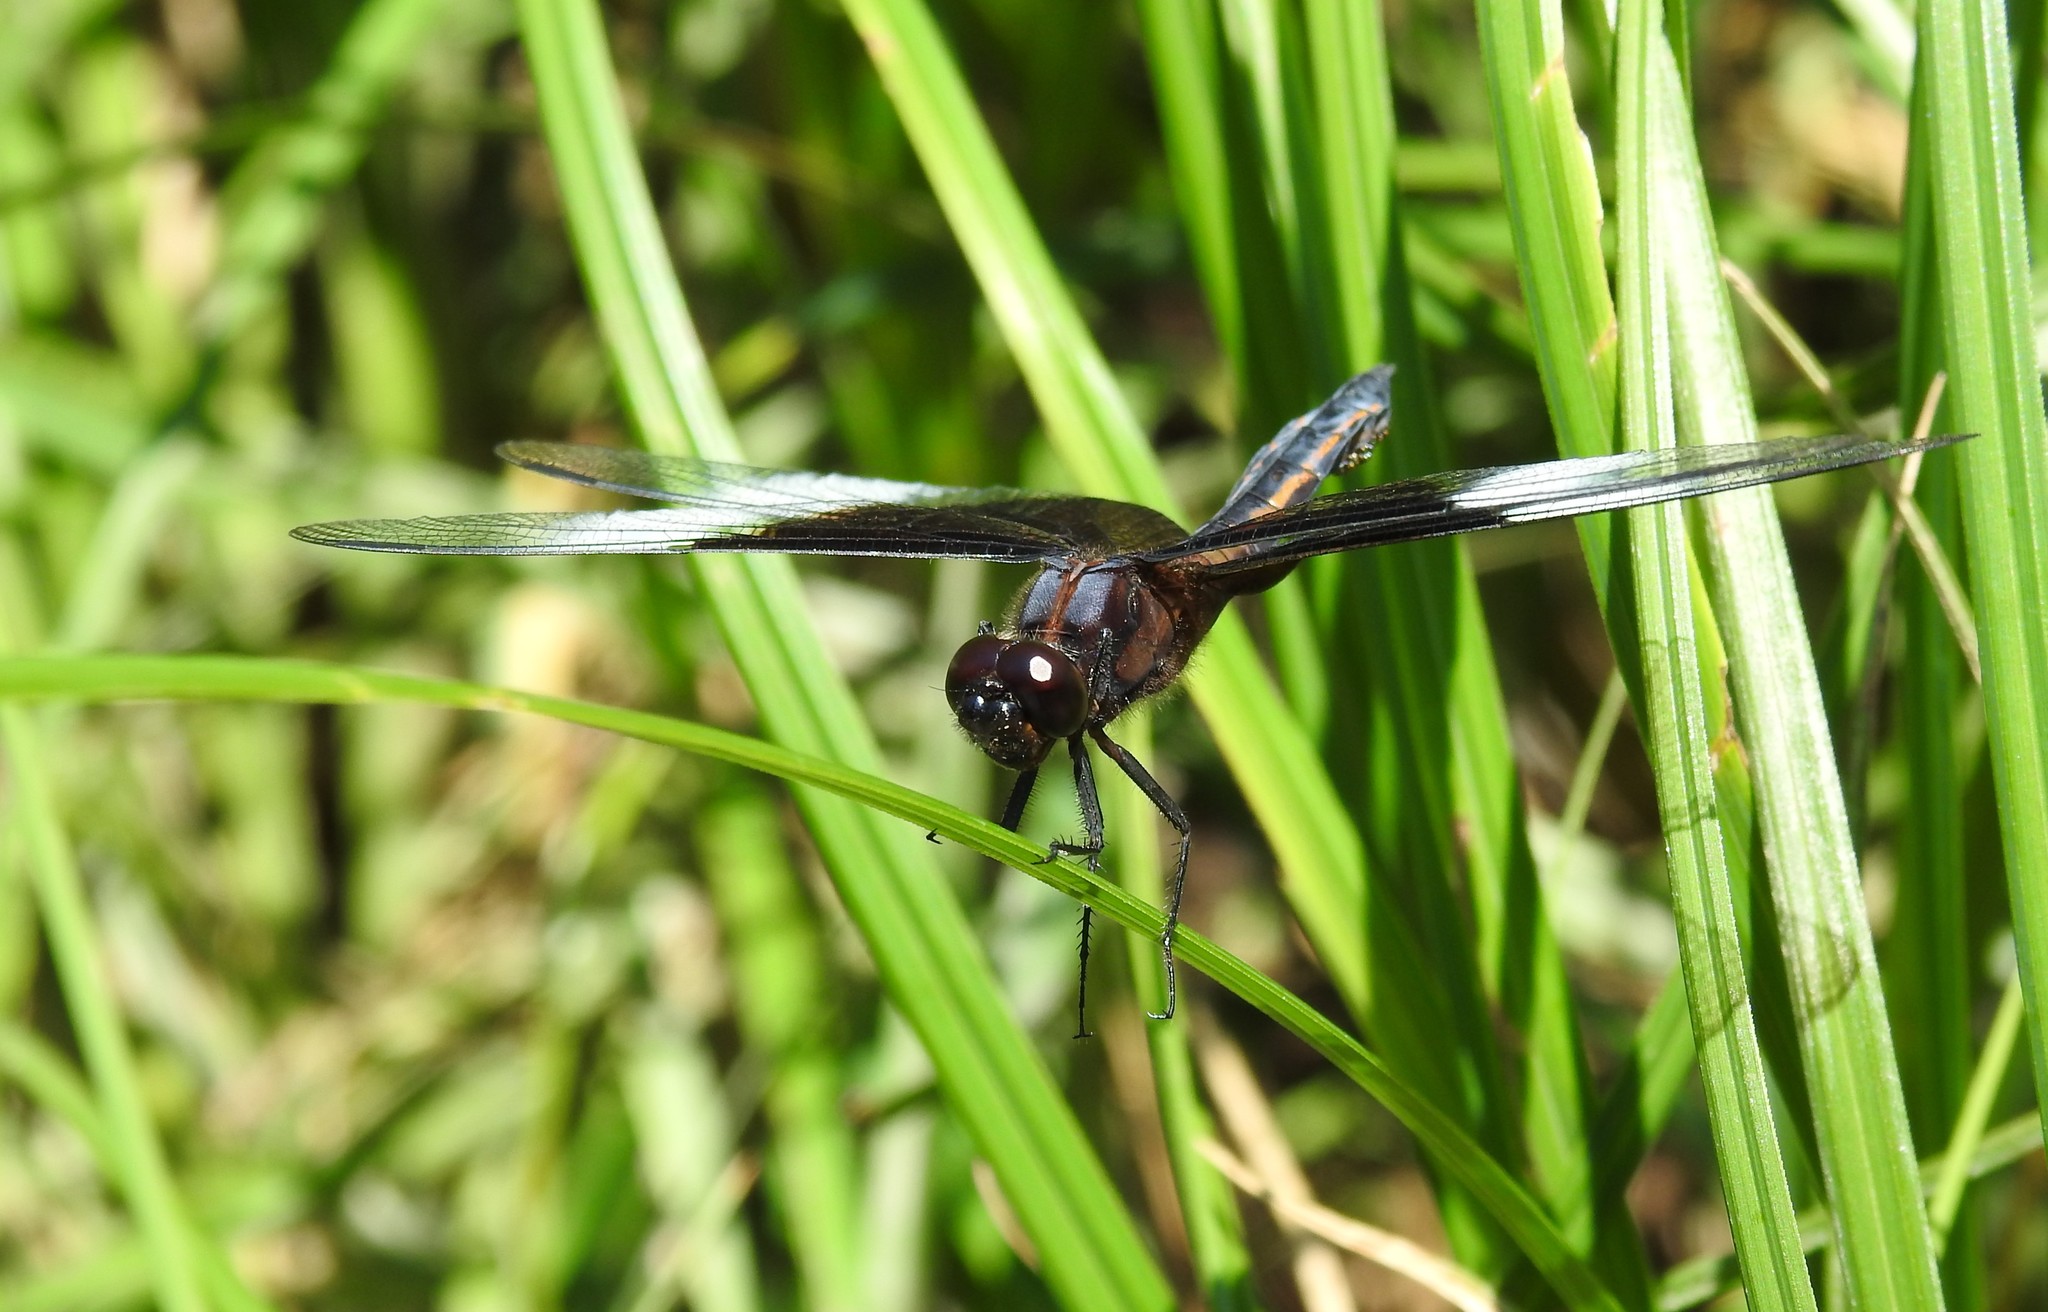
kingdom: Animalia
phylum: Arthropoda
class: Insecta
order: Odonata
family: Libellulidae
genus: Libellula
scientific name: Libellula luctuosa
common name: Widow skimmer
